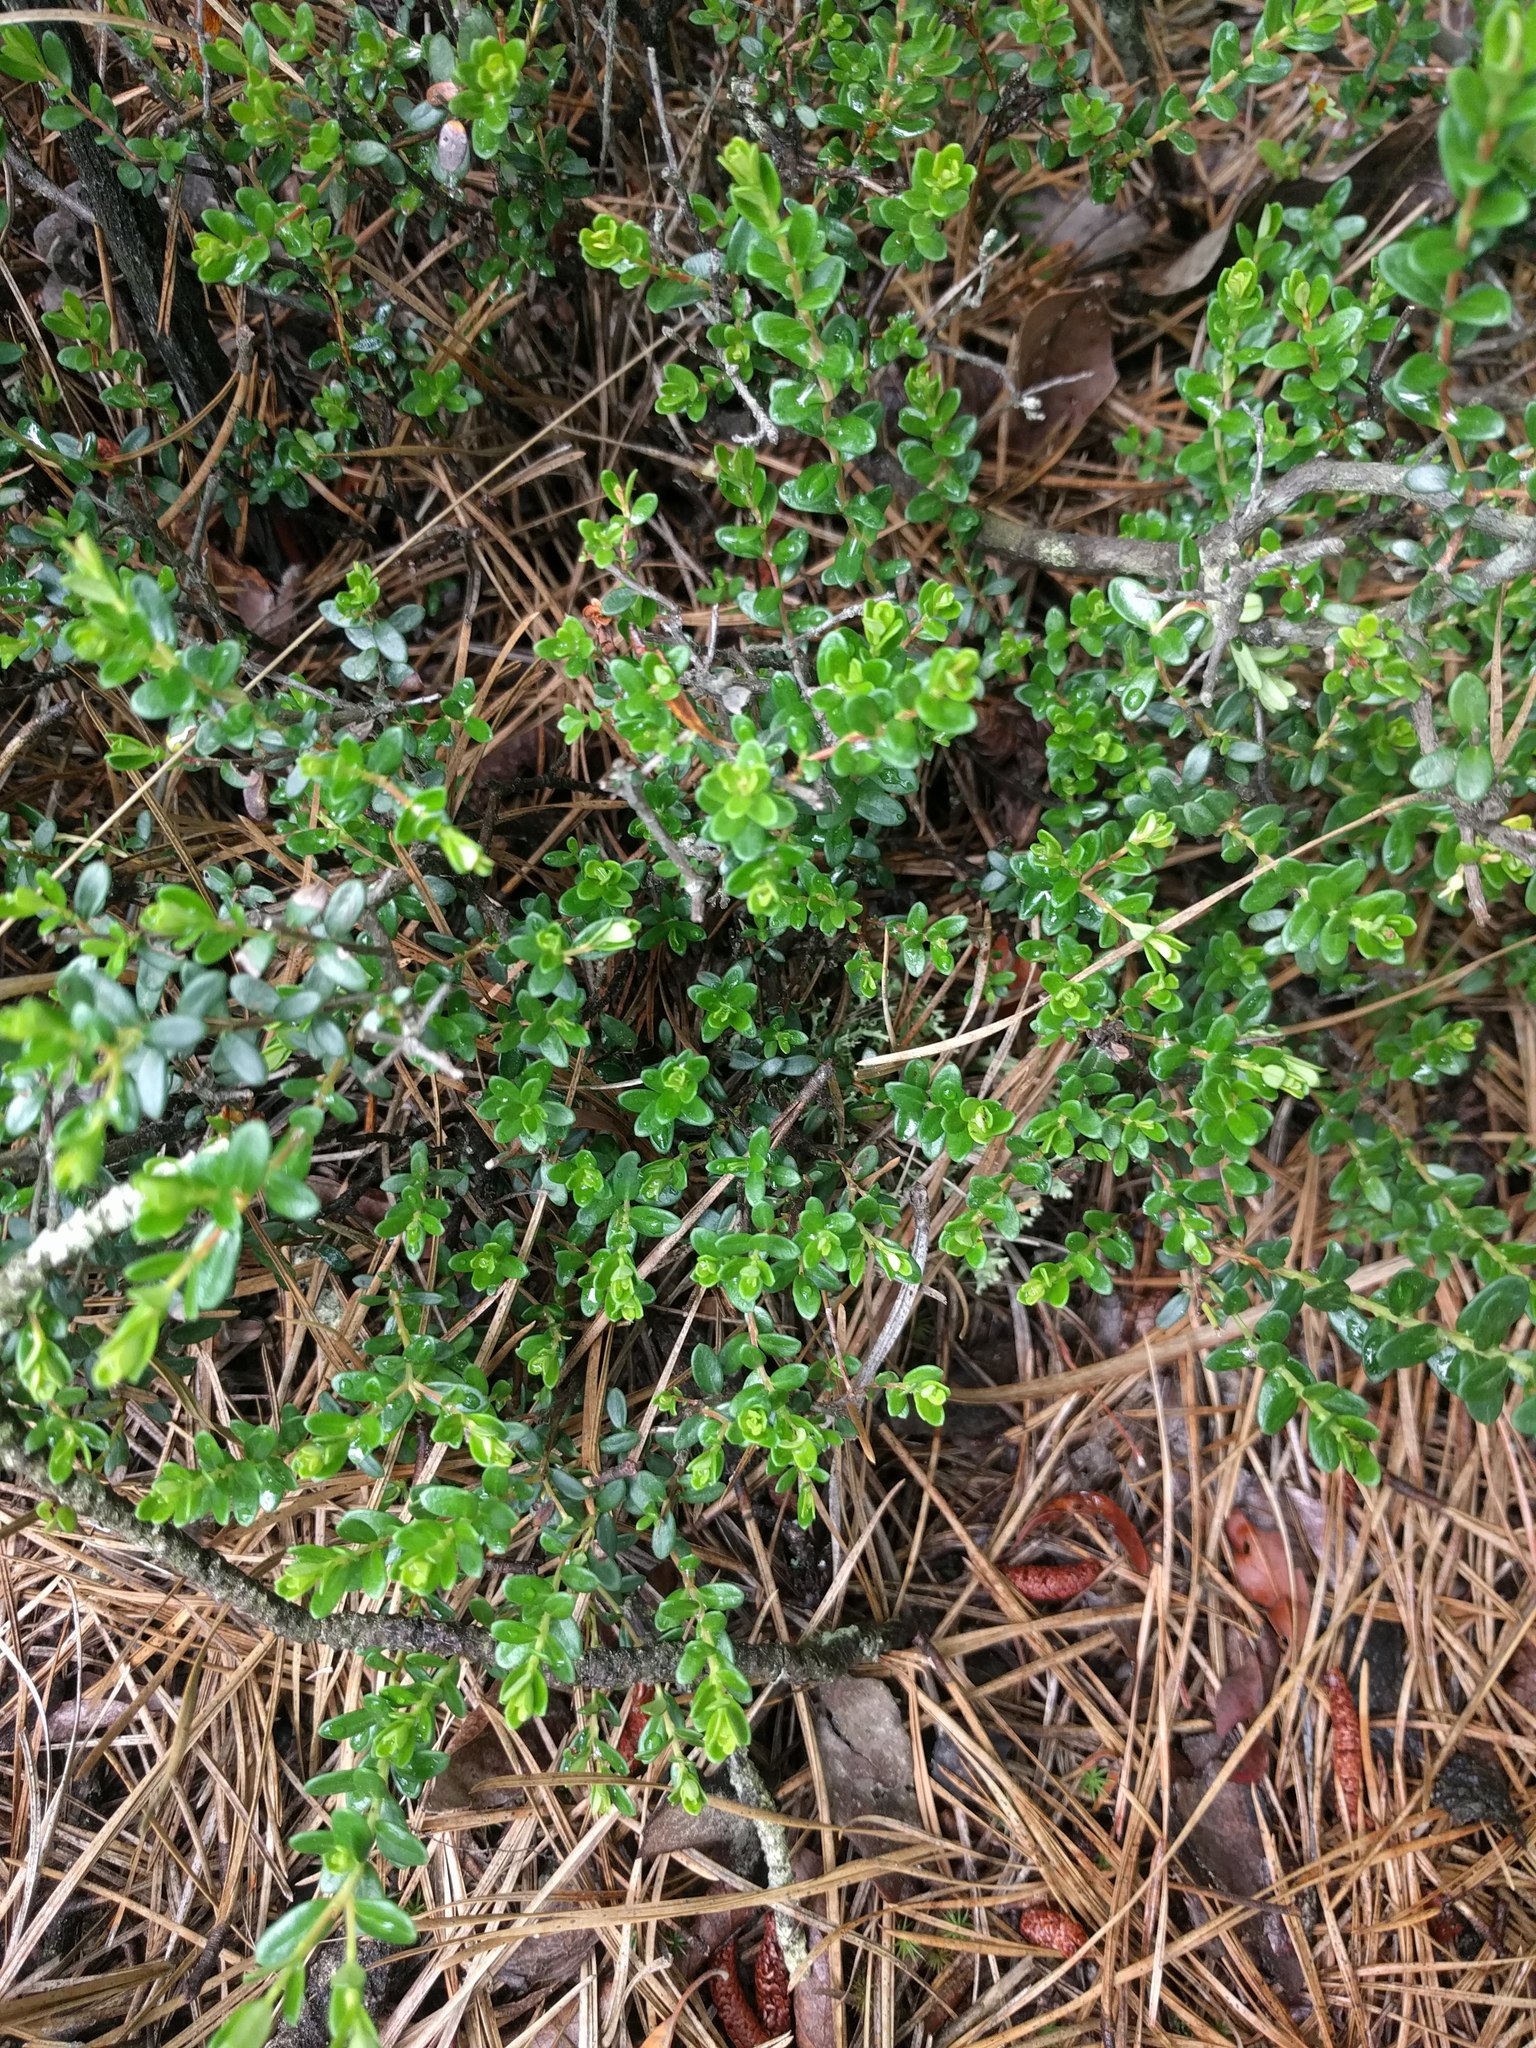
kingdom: Plantae
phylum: Tracheophyta
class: Magnoliopsida
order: Ericales
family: Ericaceae
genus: Kalmia
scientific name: Kalmia buxifolia
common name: Sandmyrtle
